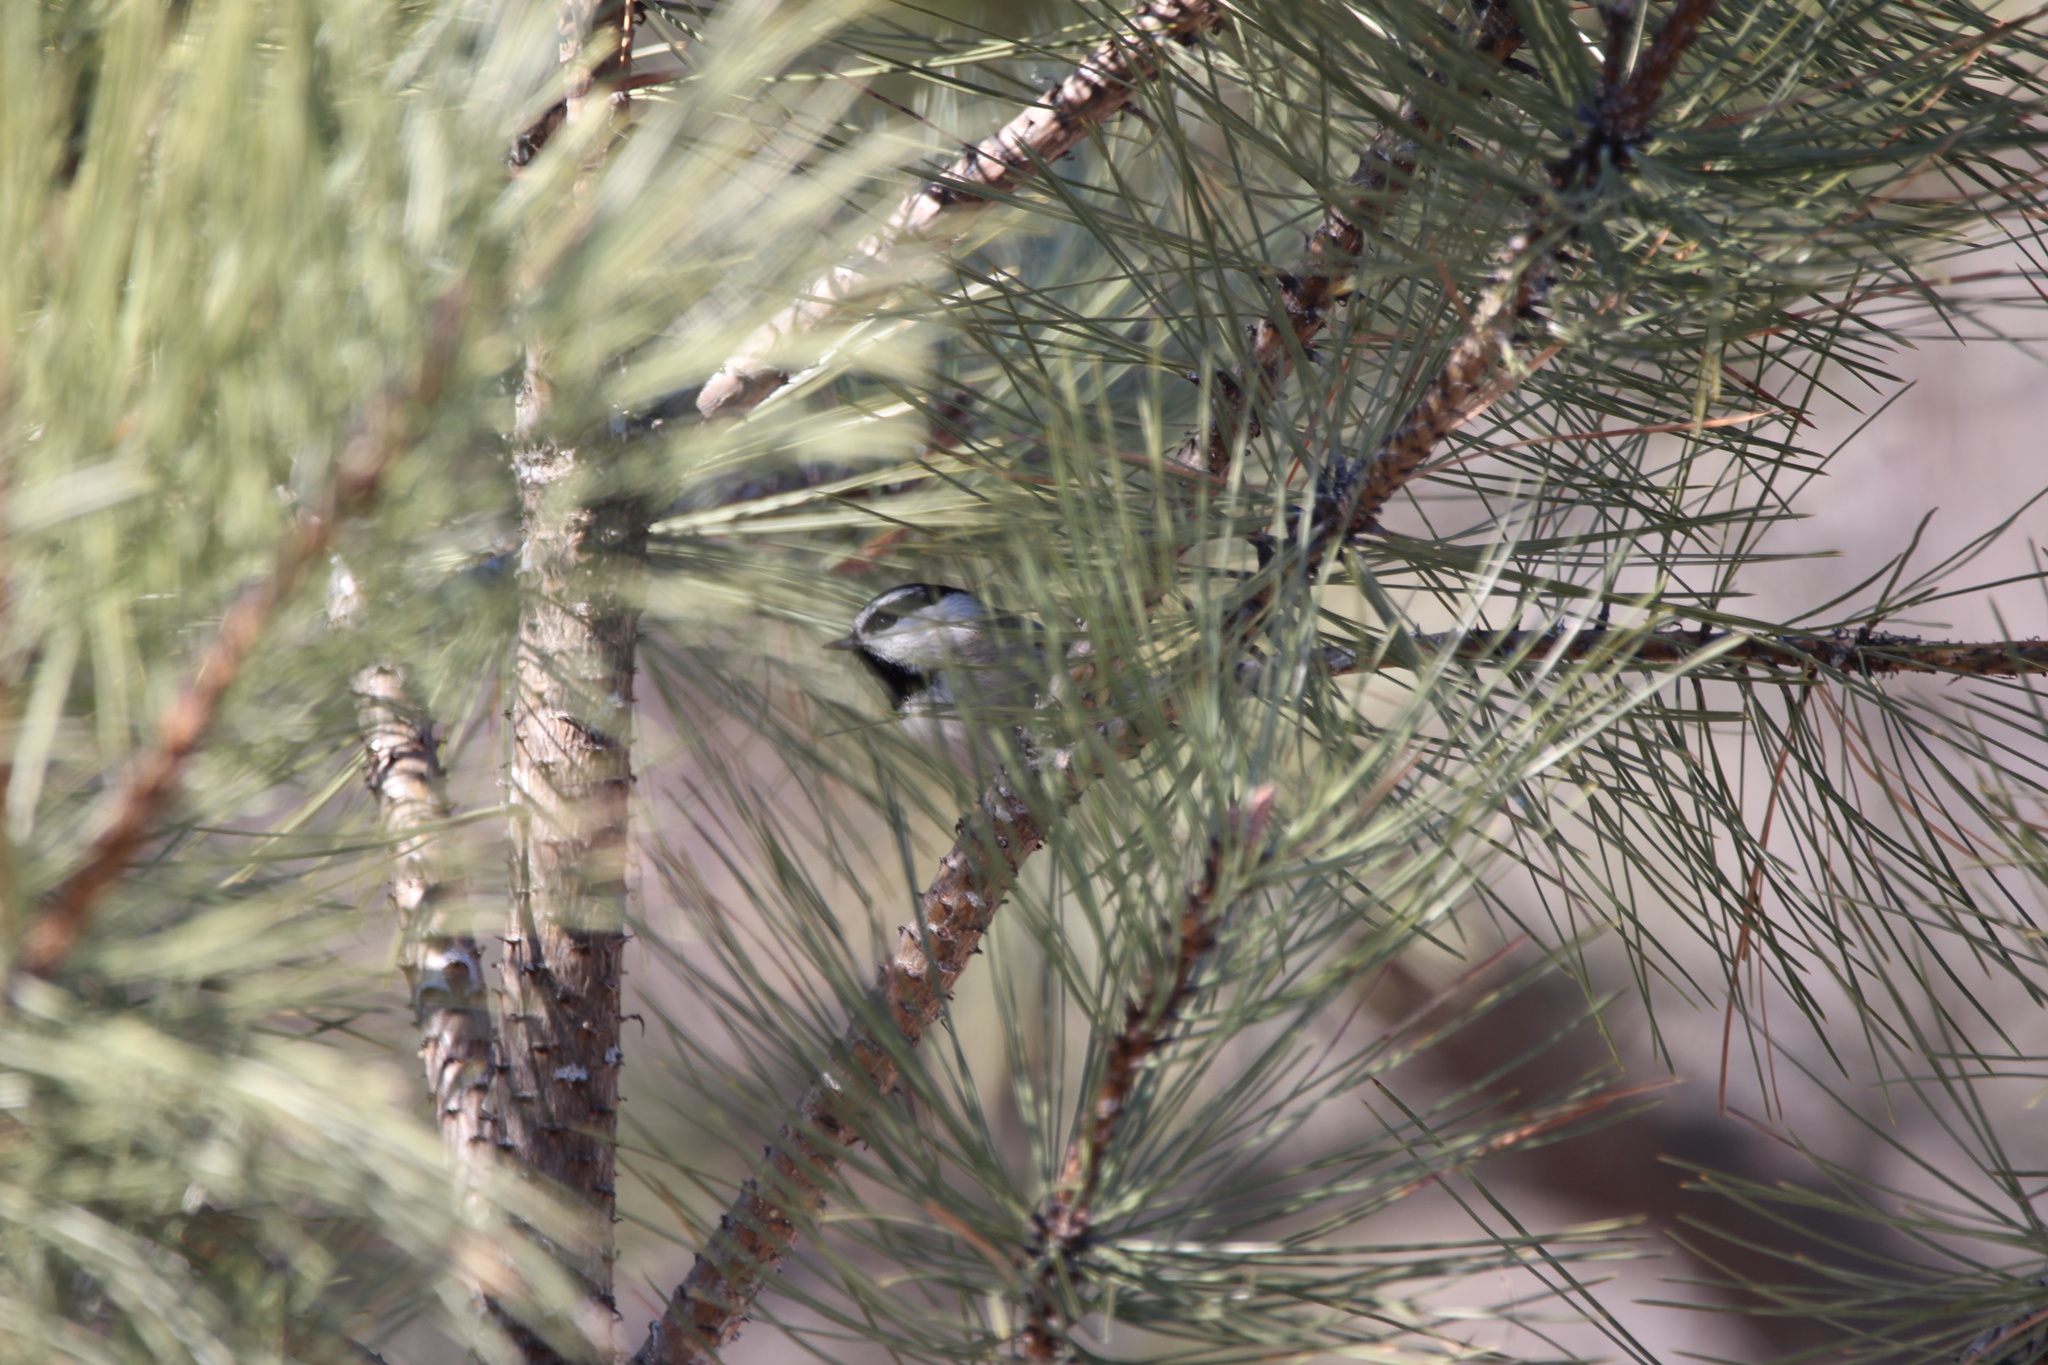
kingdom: Animalia
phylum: Chordata
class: Aves
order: Passeriformes
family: Paridae
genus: Poecile
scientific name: Poecile gambeli
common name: Mountain chickadee
